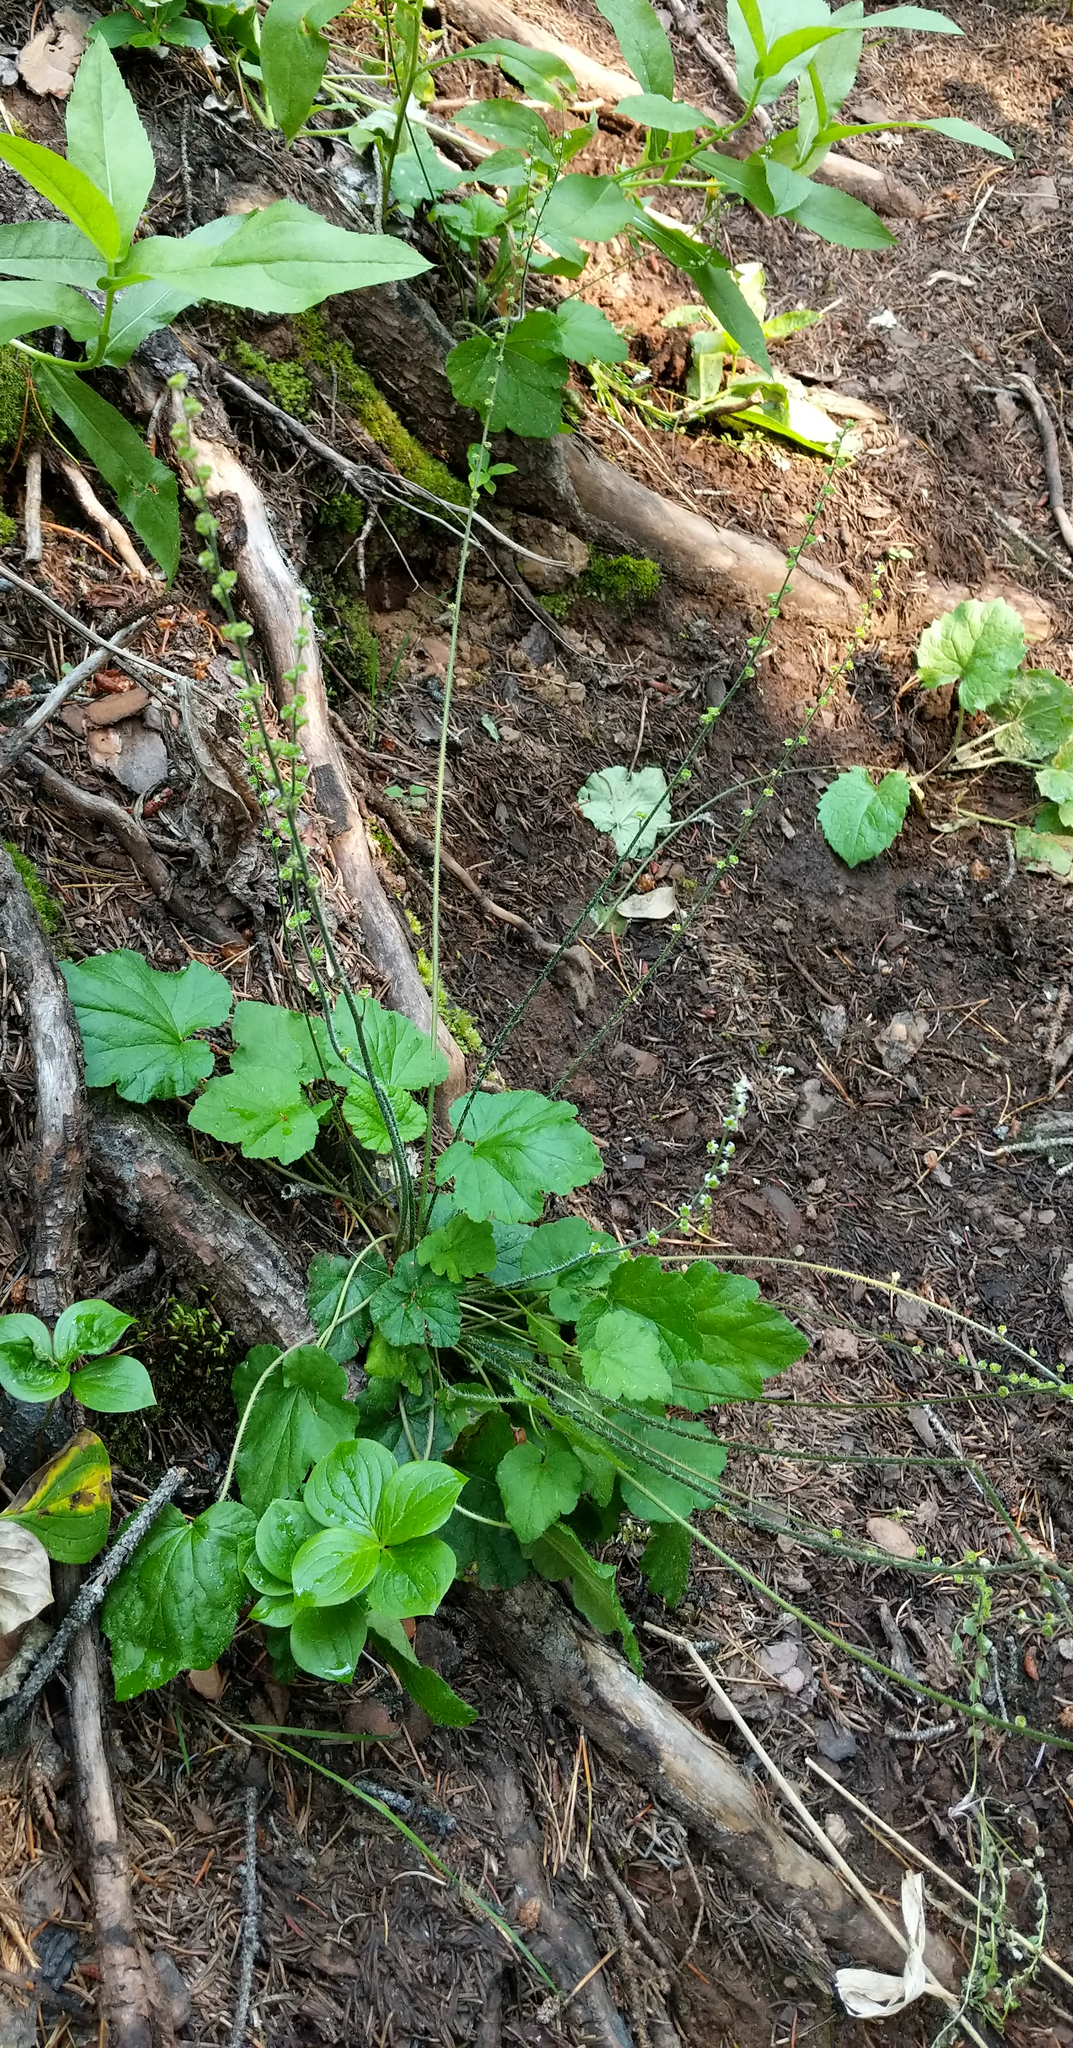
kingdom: Plantae
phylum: Tracheophyta
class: Magnoliopsida
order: Saxifragales
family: Saxifragaceae
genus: Ozomelis
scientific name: Ozomelis trifida
